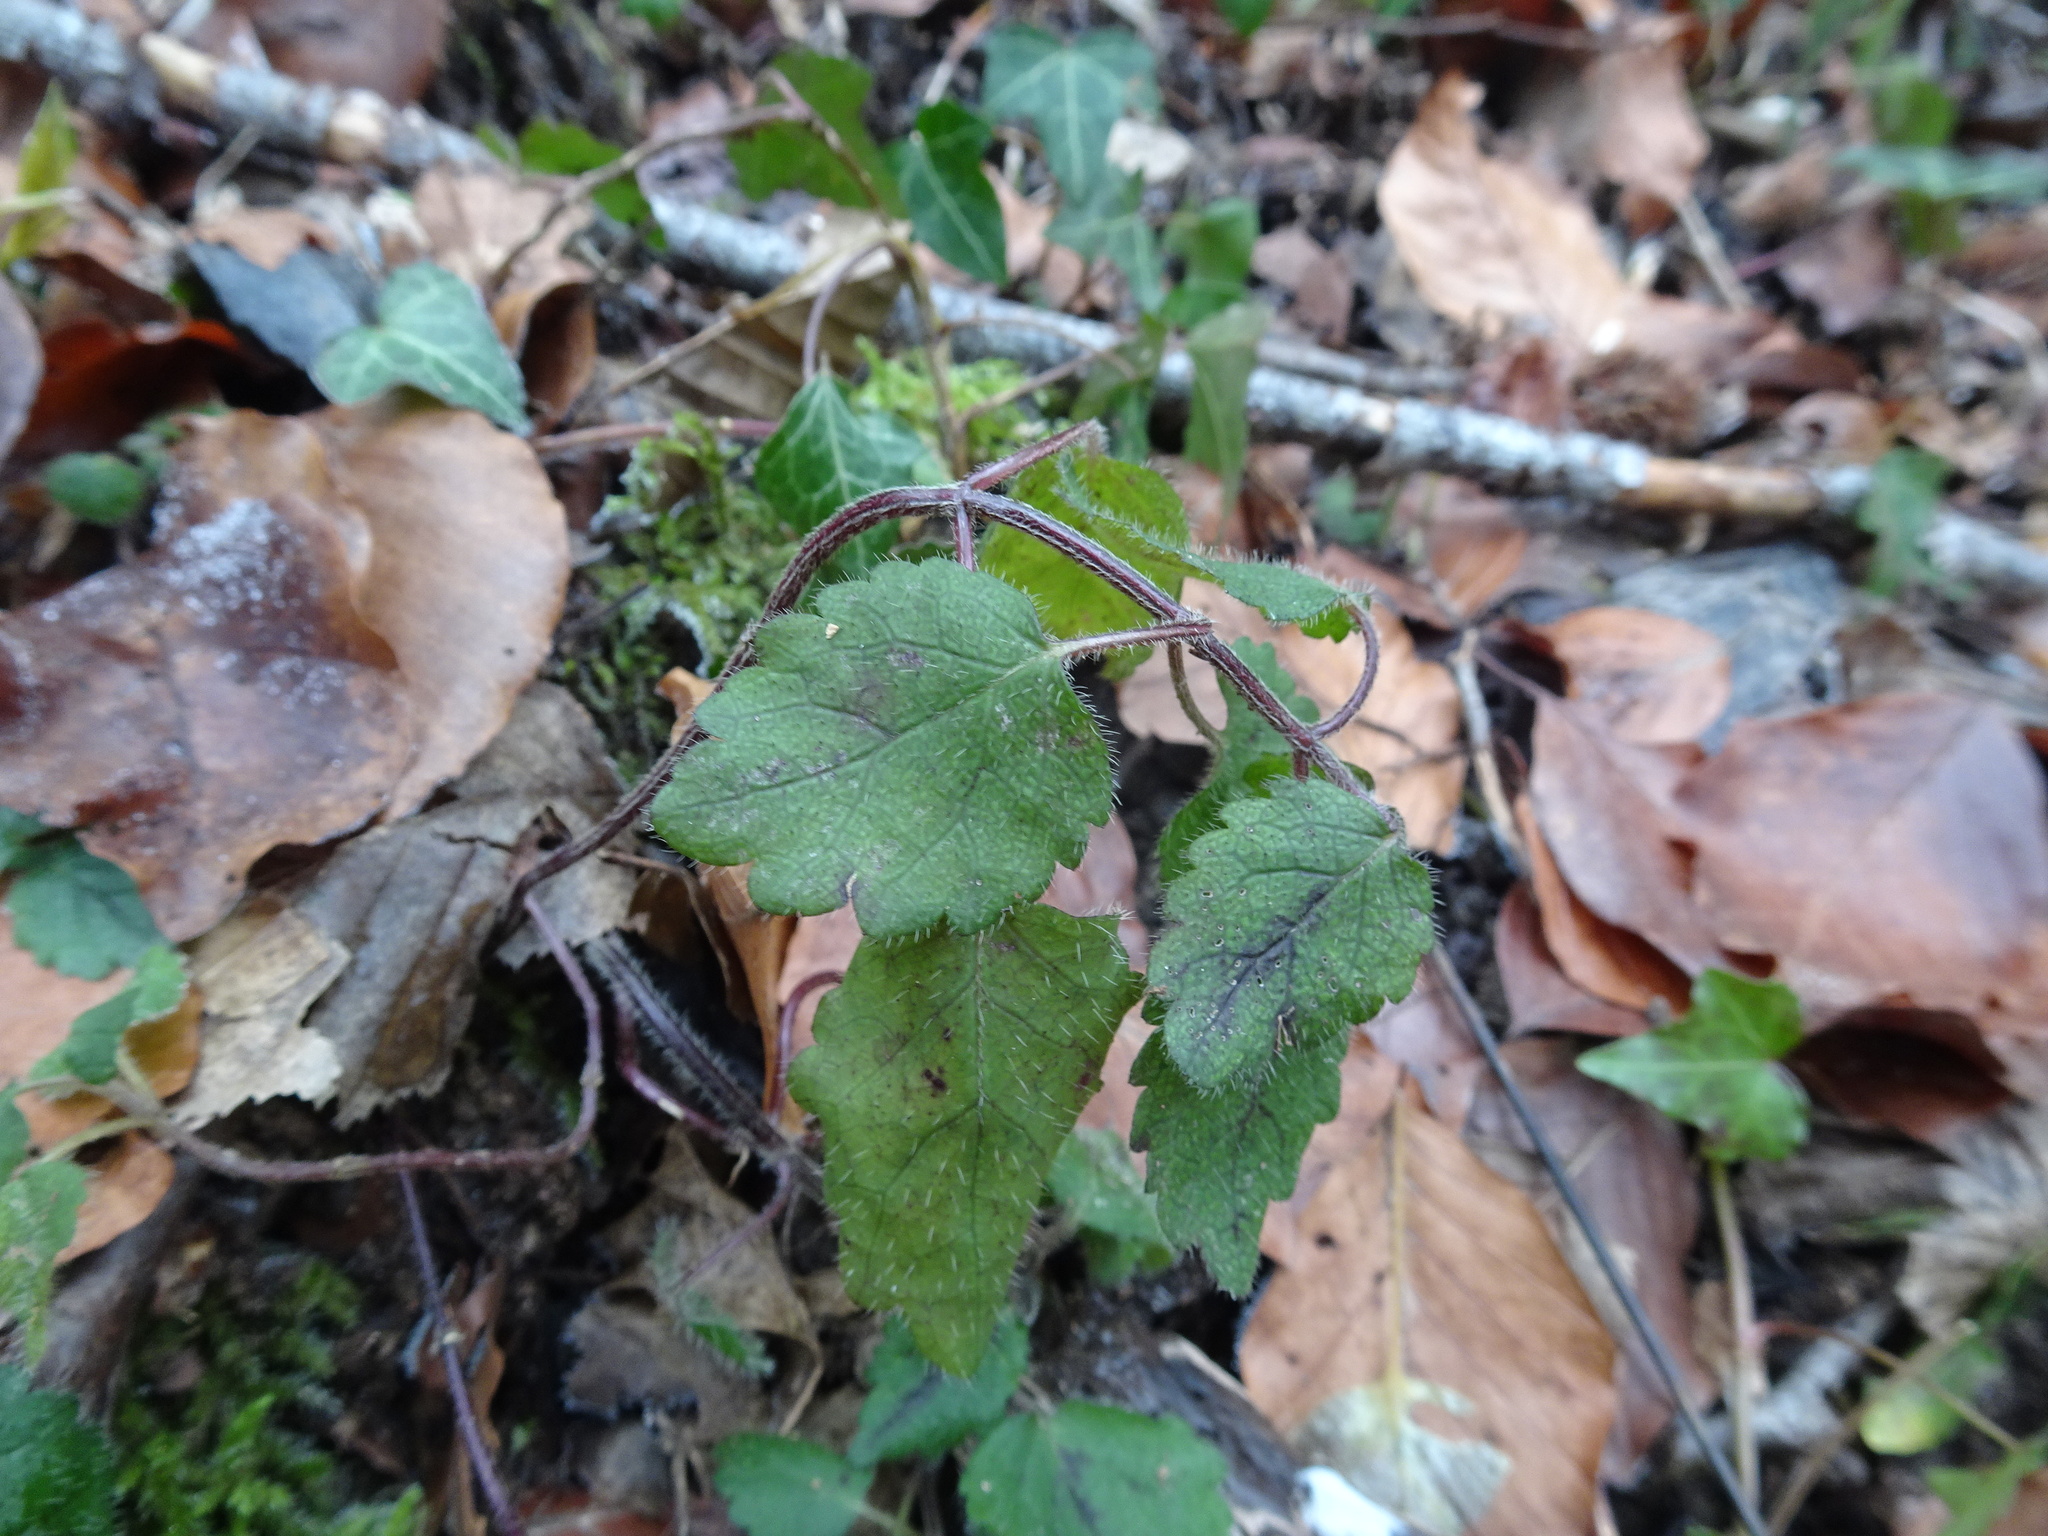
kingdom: Plantae
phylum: Tracheophyta
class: Magnoliopsida
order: Lamiales
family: Lamiaceae
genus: Lamium
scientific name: Lamium galeobdolon
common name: Yellow archangel
